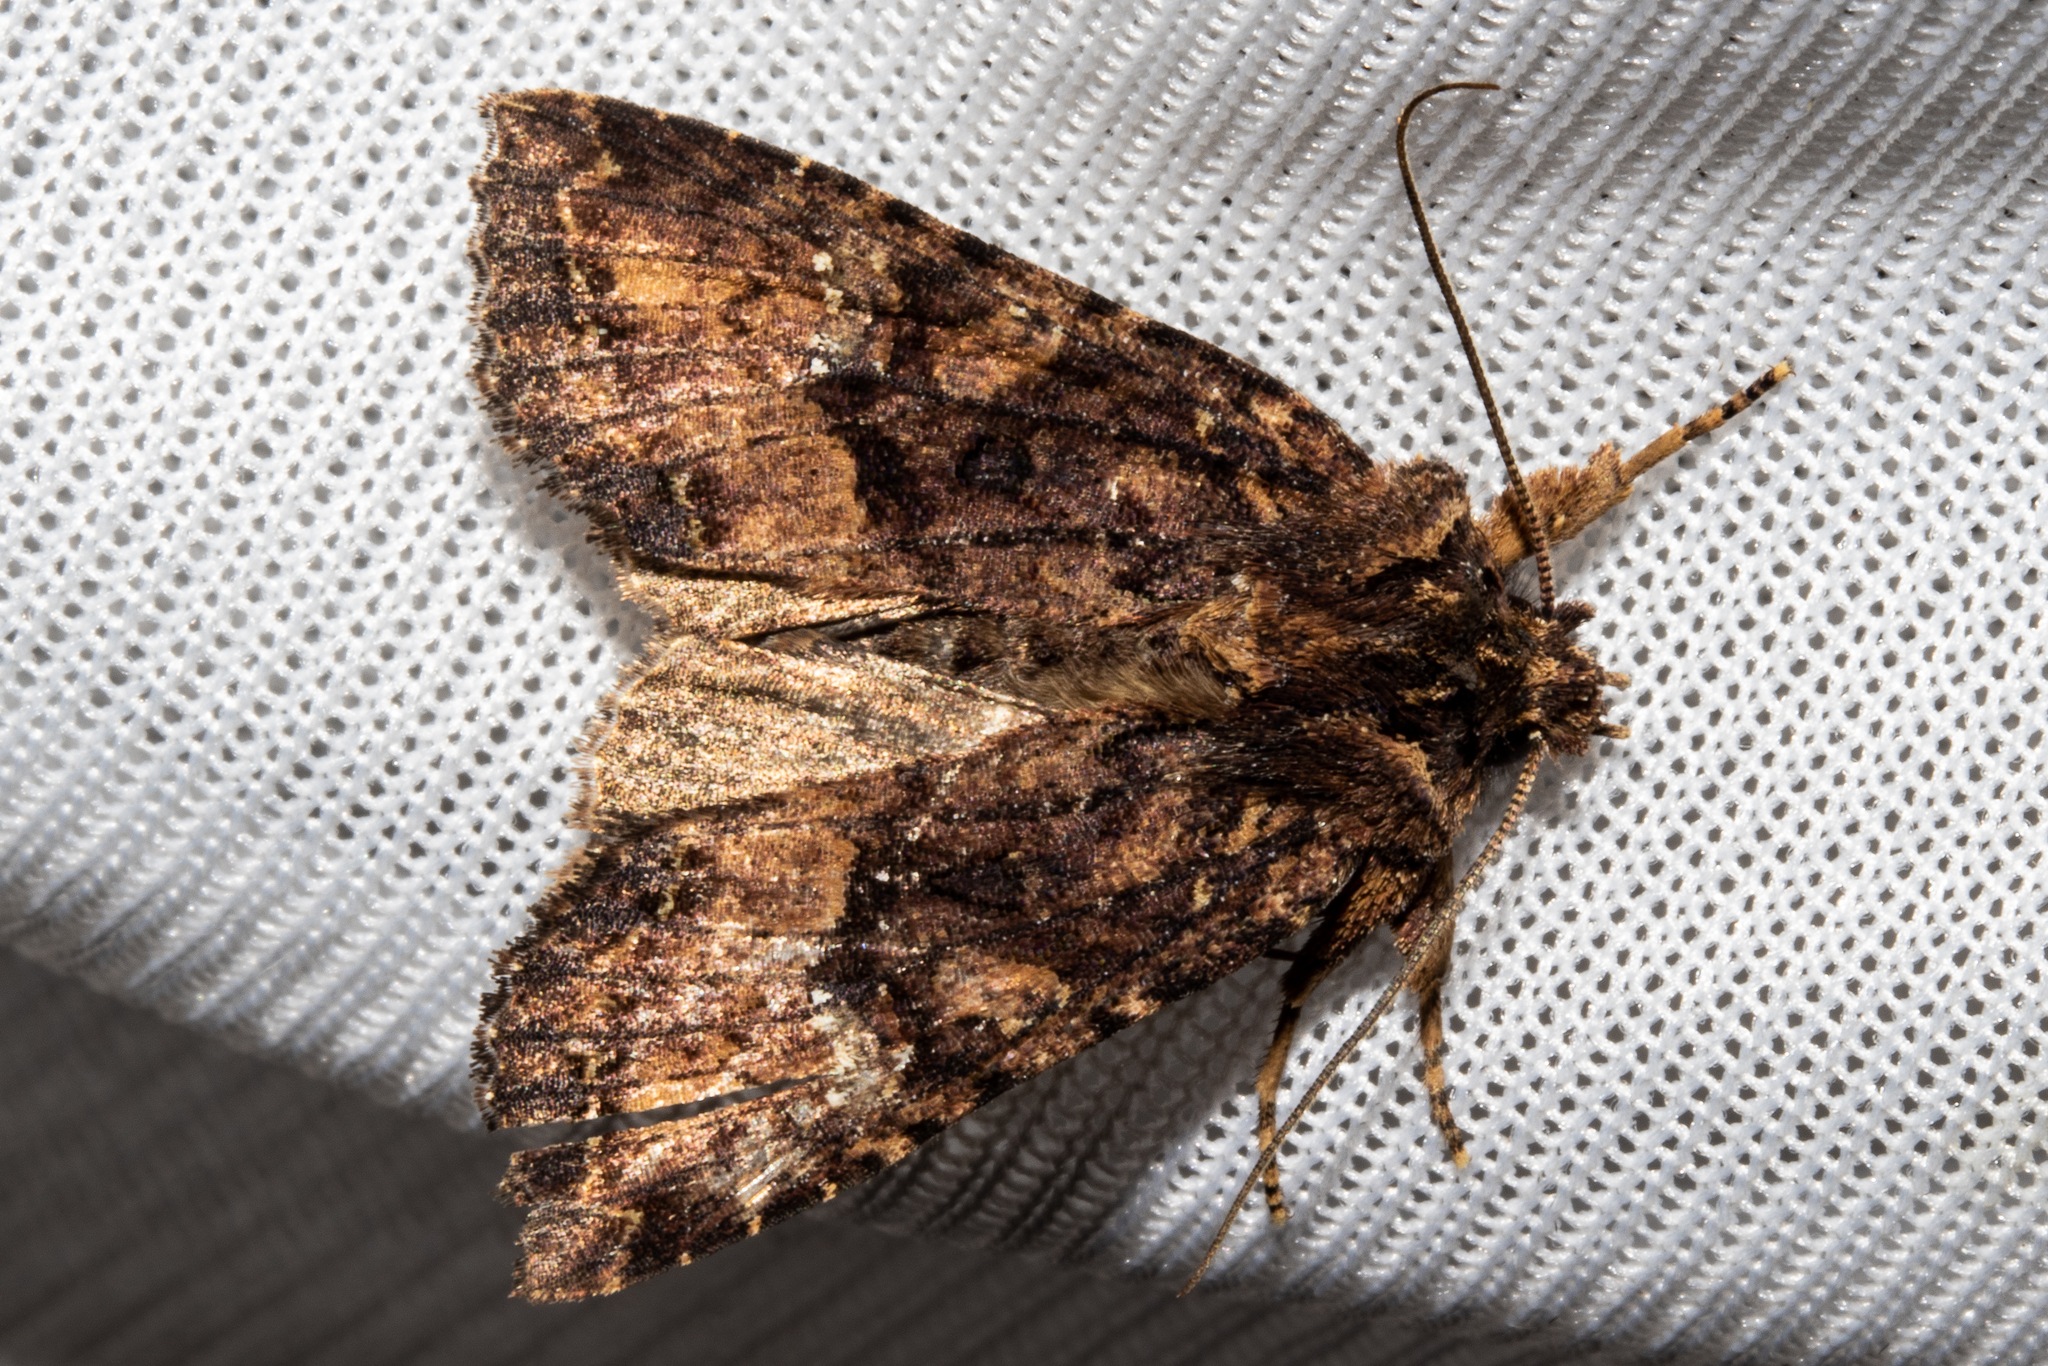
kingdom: Animalia
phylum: Arthropoda
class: Insecta
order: Lepidoptera
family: Noctuidae
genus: Meterana
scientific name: Meterana ochthistis
